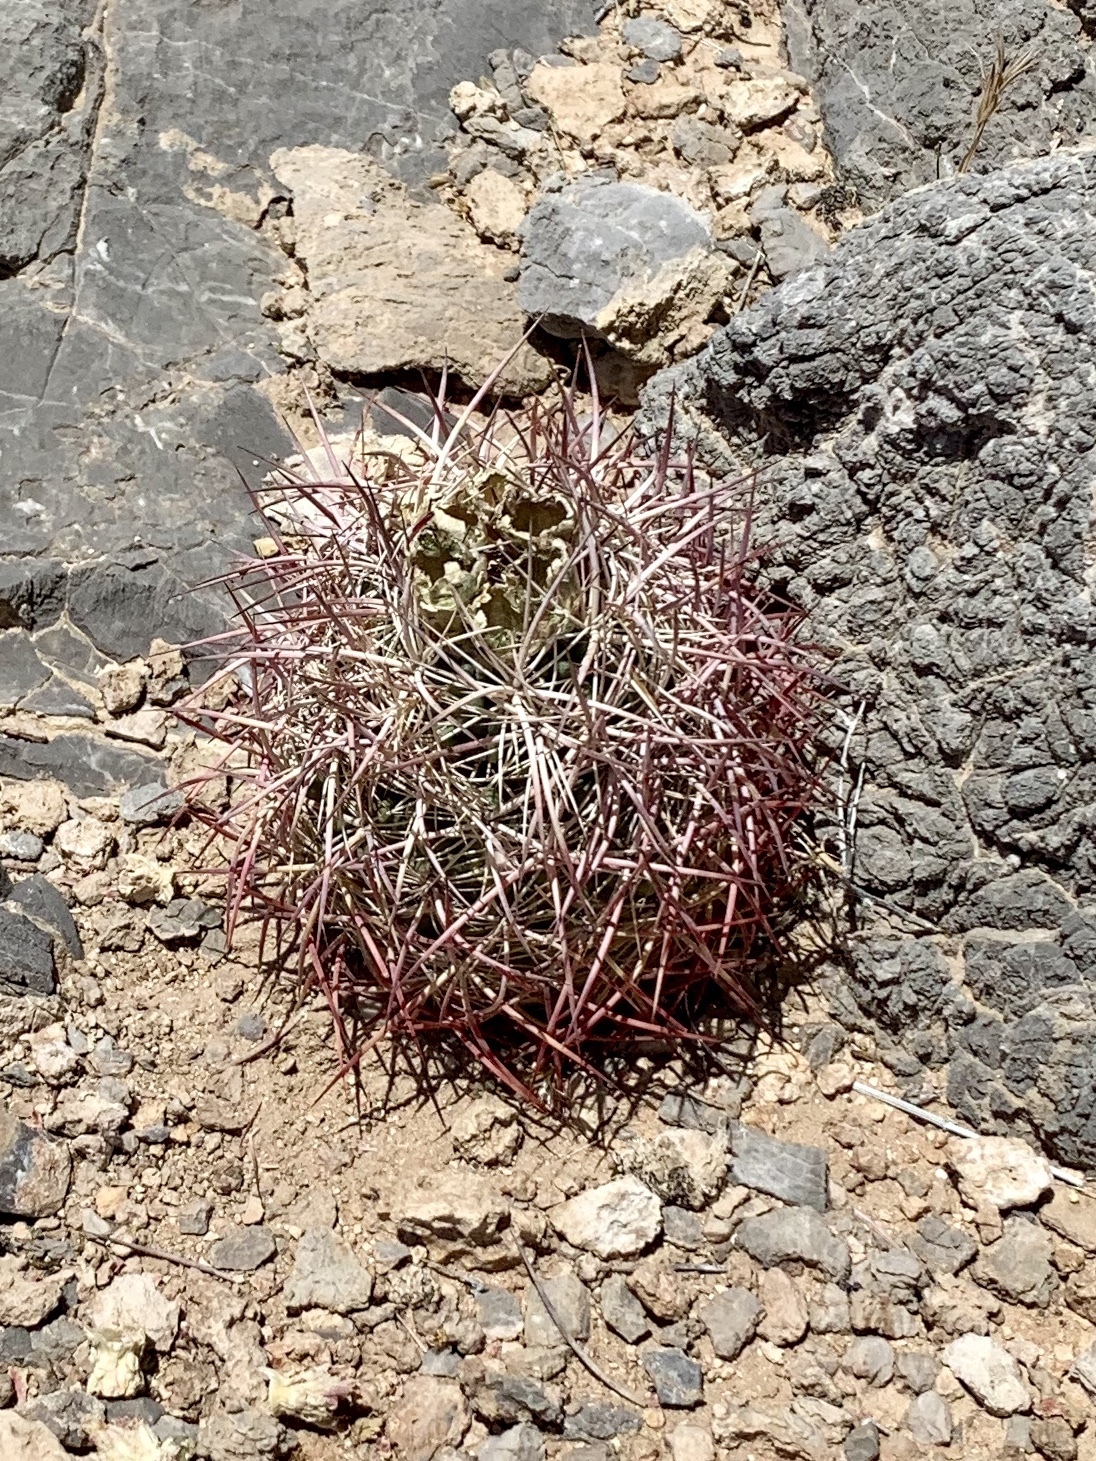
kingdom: Plantae
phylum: Tracheophyta
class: Magnoliopsida
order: Caryophyllales
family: Cactaceae
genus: Sclerocactus
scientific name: Sclerocactus johnsonii
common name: Eight-spine fishhook cactus
